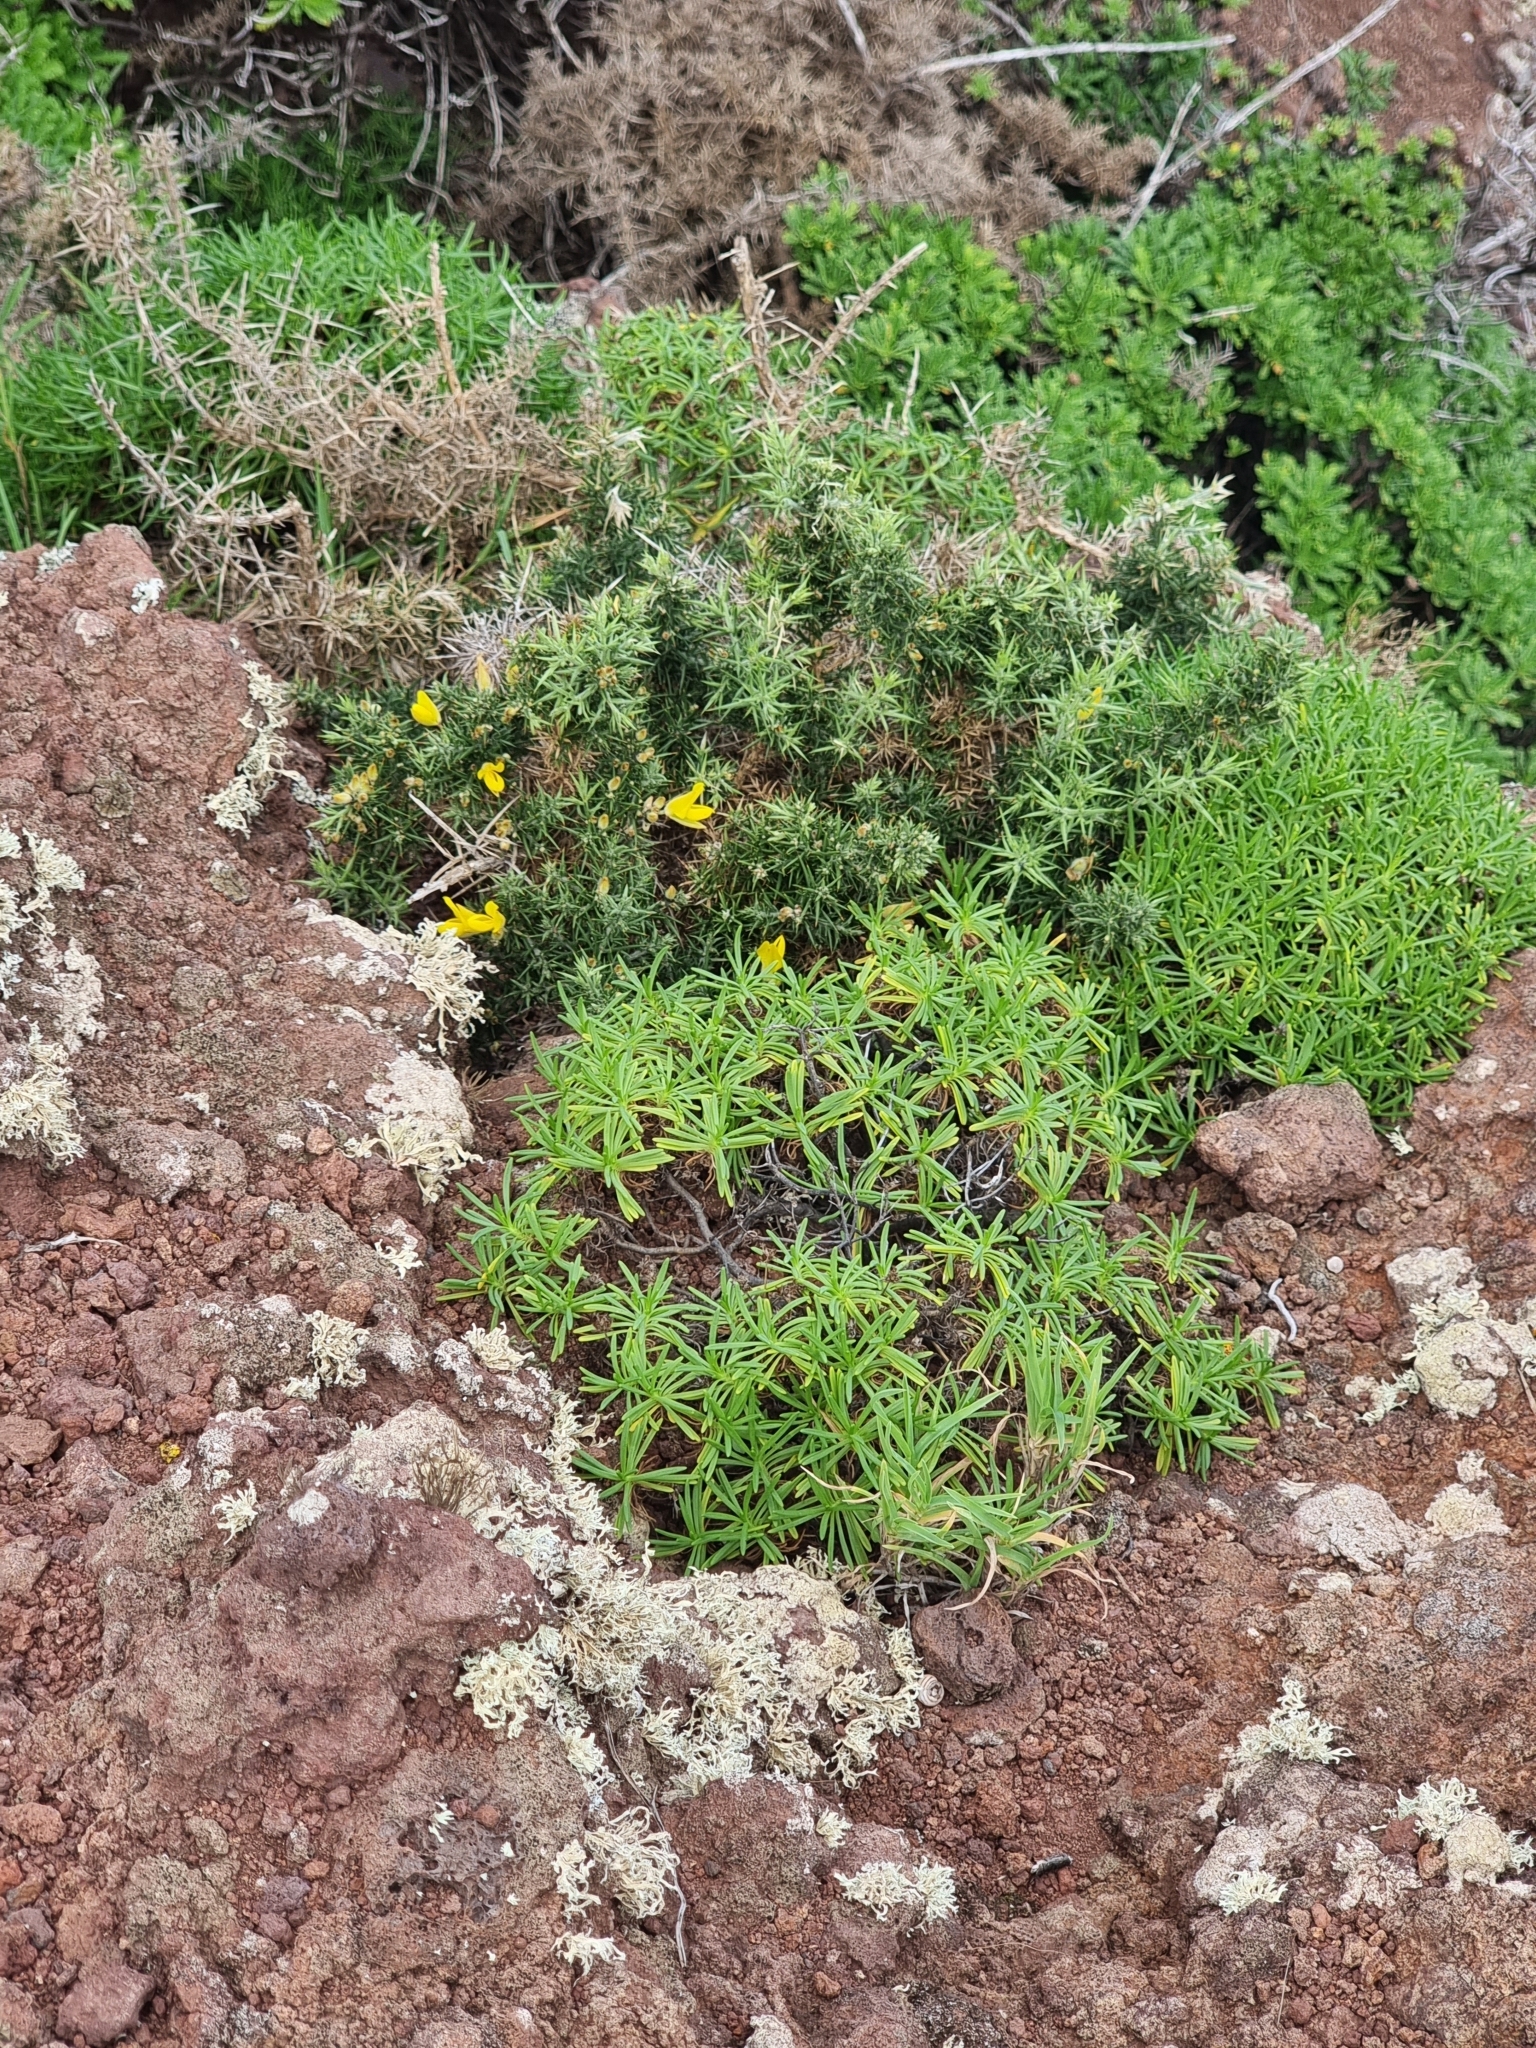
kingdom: Plantae
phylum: Tracheophyta
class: Magnoliopsida
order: Lamiales
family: Plantaginaceae
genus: Plantago
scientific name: Plantago arborescens
